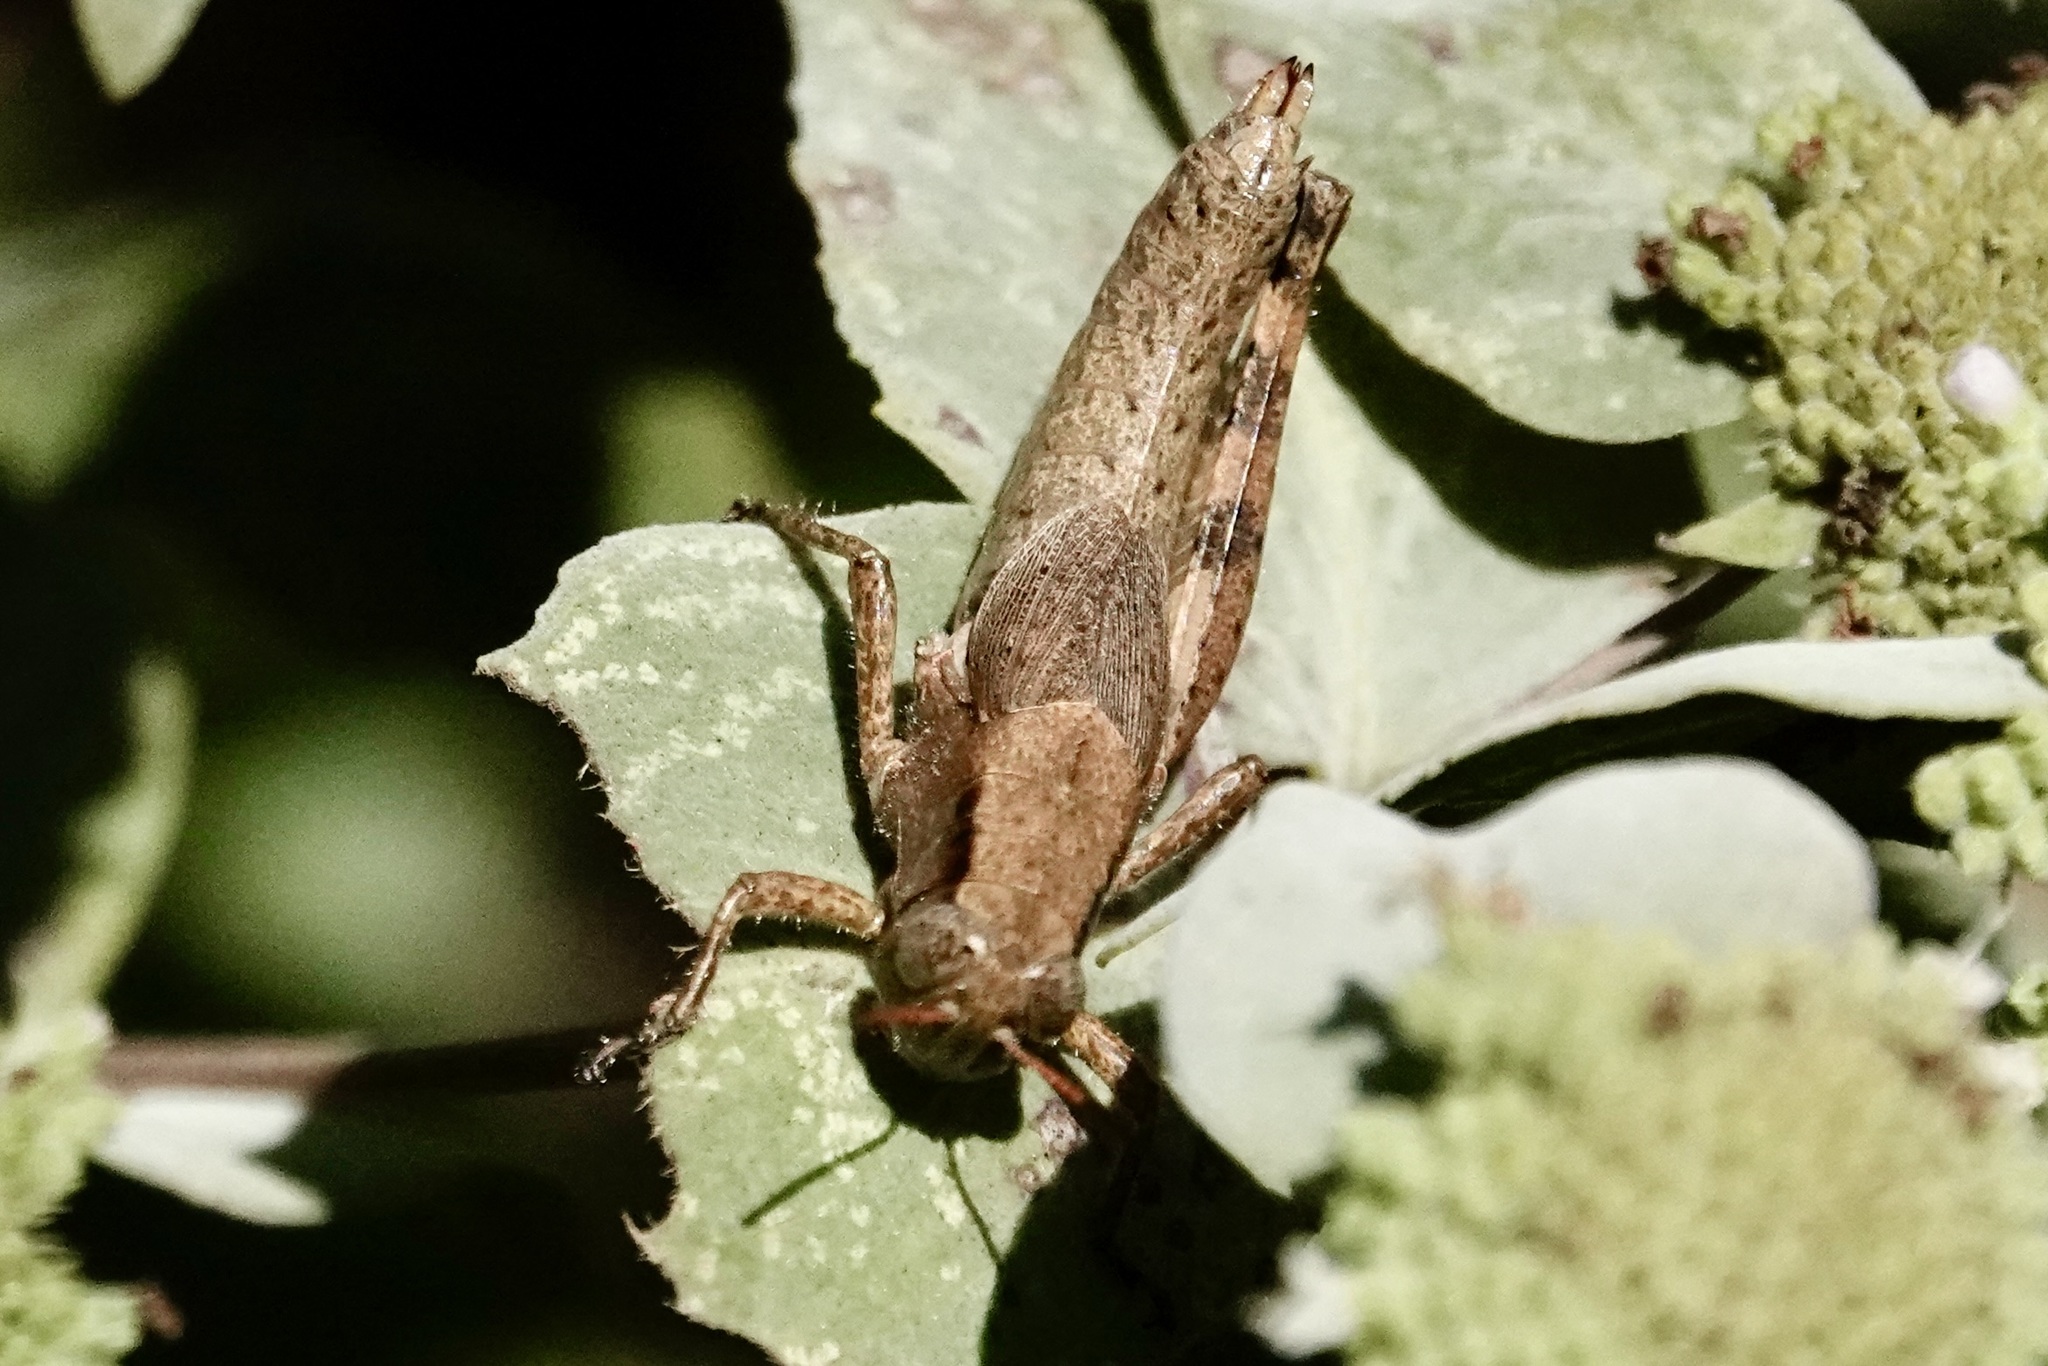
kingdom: Animalia
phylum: Arthropoda
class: Insecta
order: Orthoptera
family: Acrididae
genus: Melanoplus
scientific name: Melanoplus scudderi
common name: Scudder's short-winged locust
